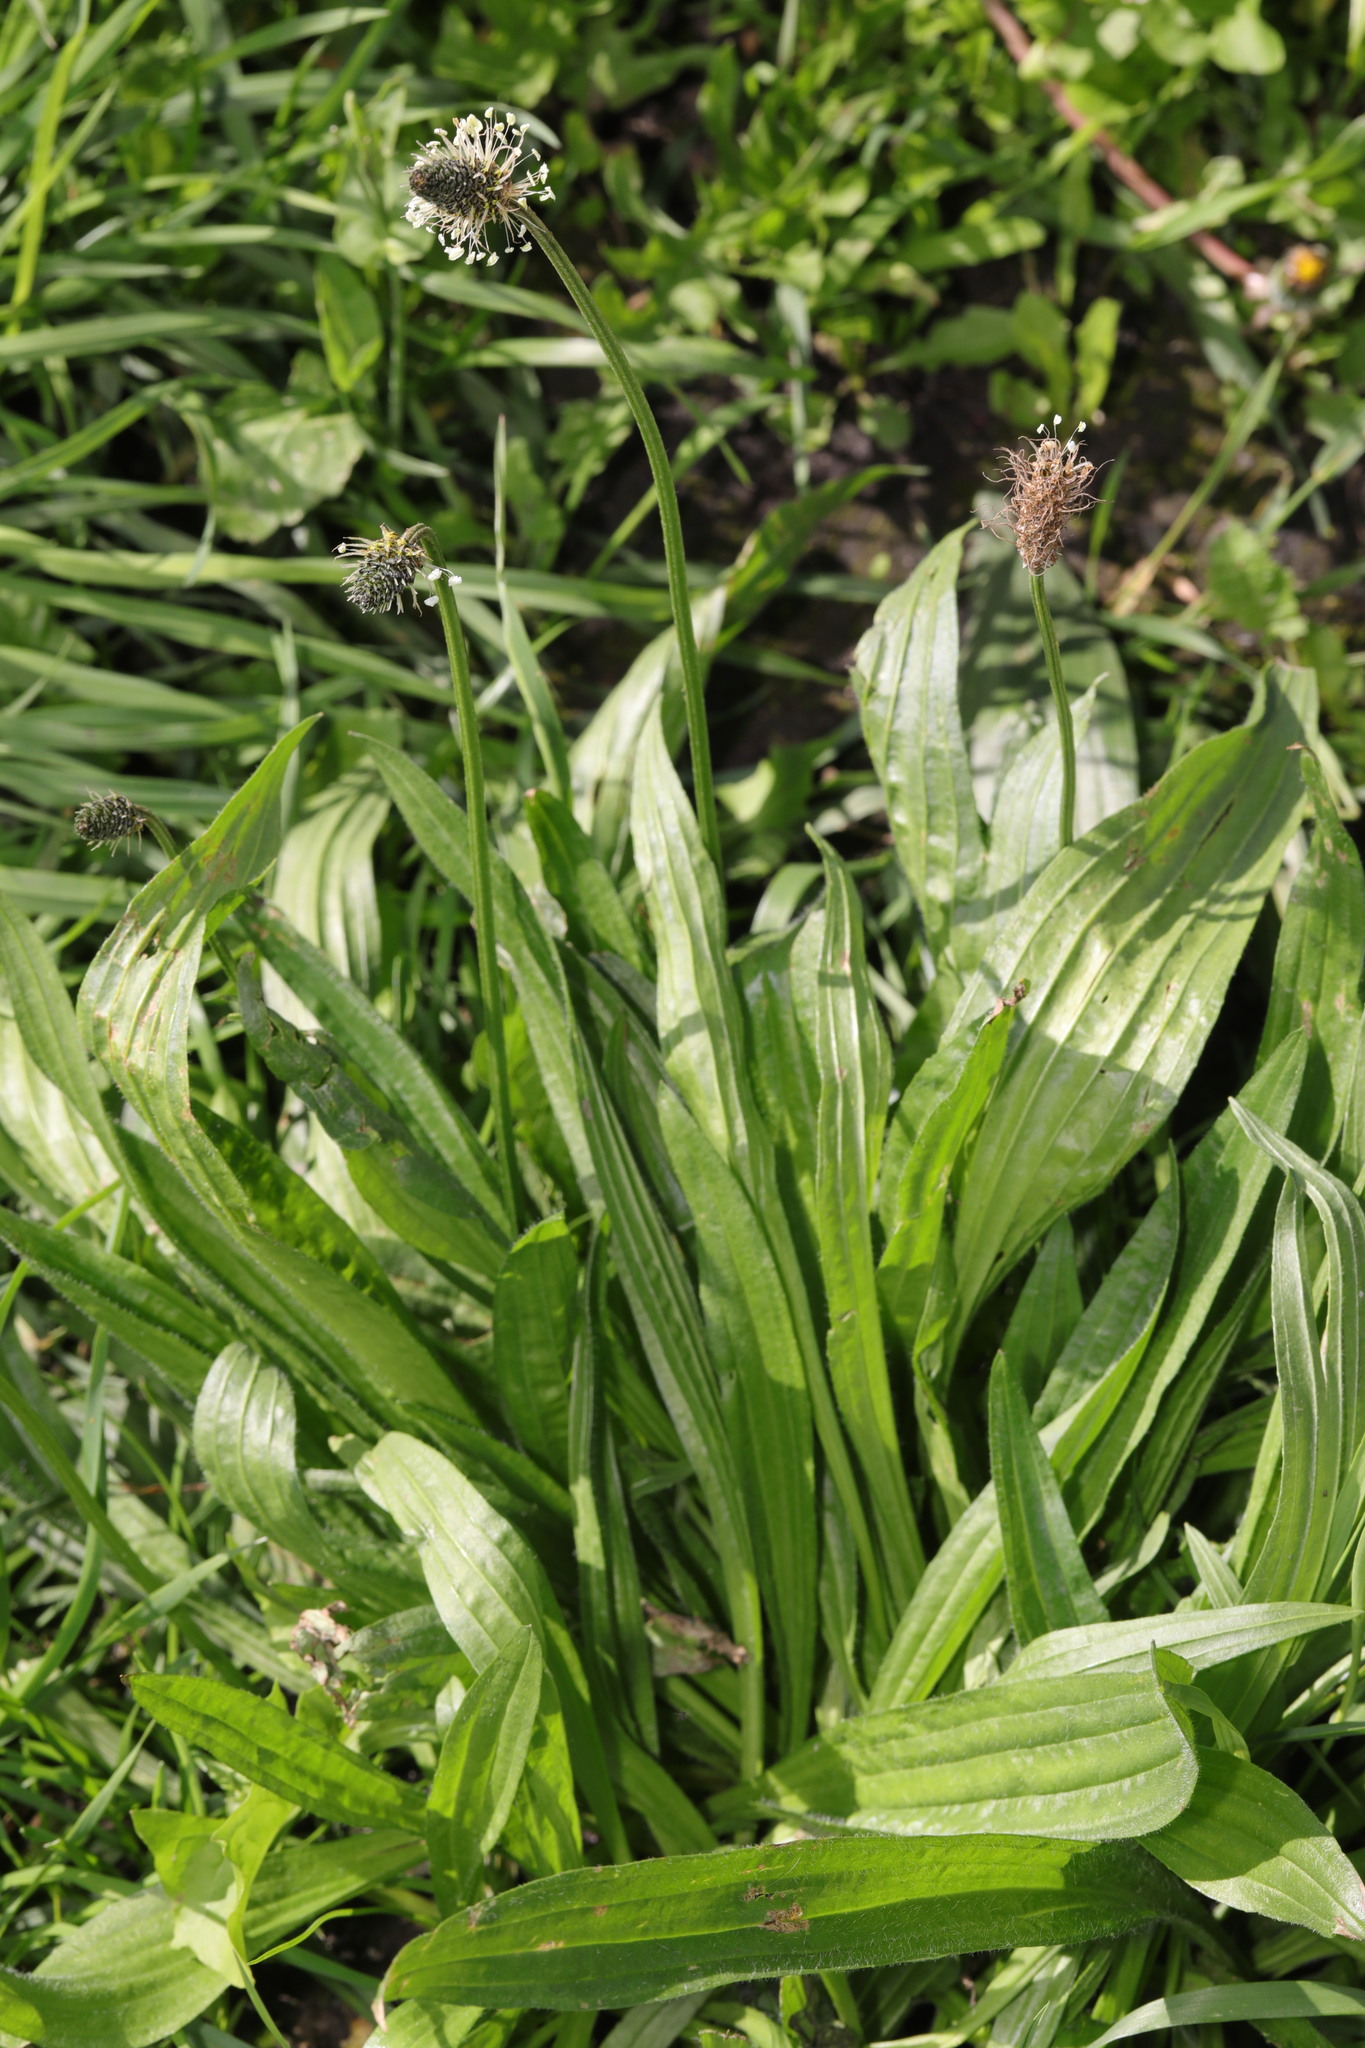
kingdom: Plantae
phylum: Tracheophyta
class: Magnoliopsida
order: Lamiales
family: Plantaginaceae
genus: Plantago
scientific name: Plantago lanceolata
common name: Ribwort plantain
